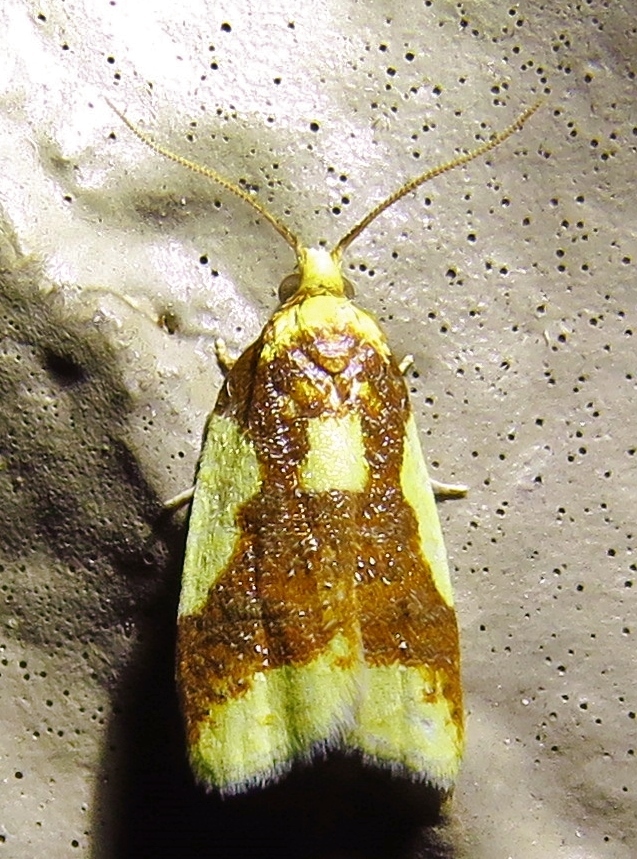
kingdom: Animalia
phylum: Arthropoda
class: Insecta
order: Lepidoptera
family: Tortricidae
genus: Sparganothis
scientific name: Sparganothis pulcherrimana
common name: Beautiful sparganothis
